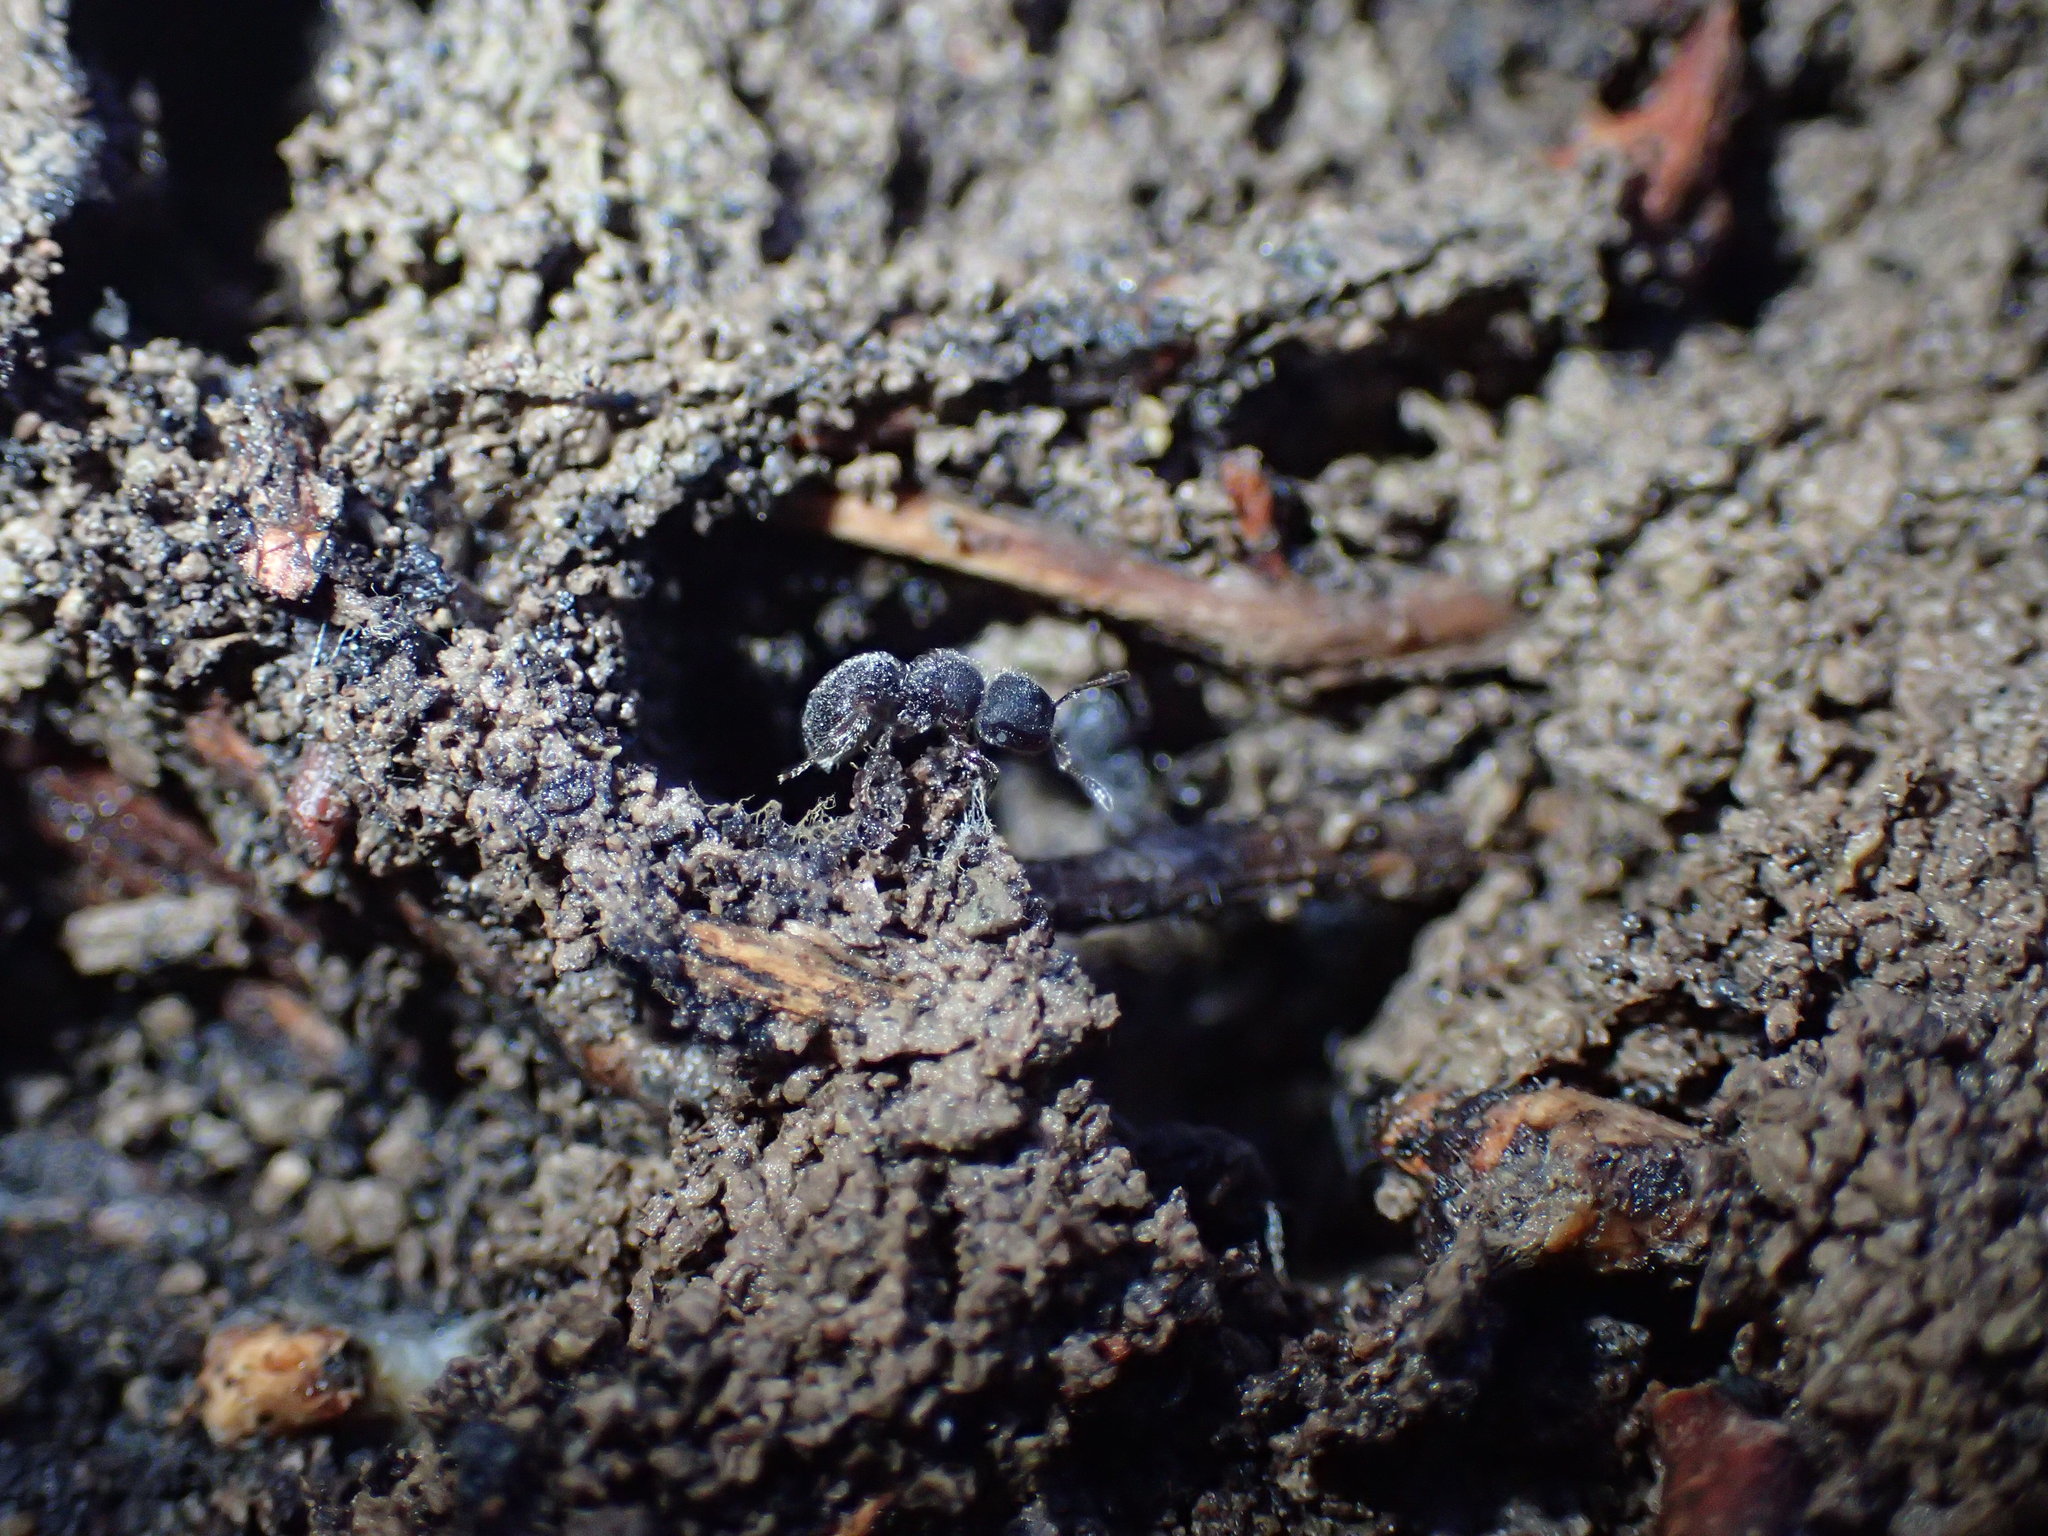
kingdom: Animalia
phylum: Arthropoda
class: Insecta
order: Hymenoptera
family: Formicidae
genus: Meranoplus
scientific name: Meranoplus peringueyi
